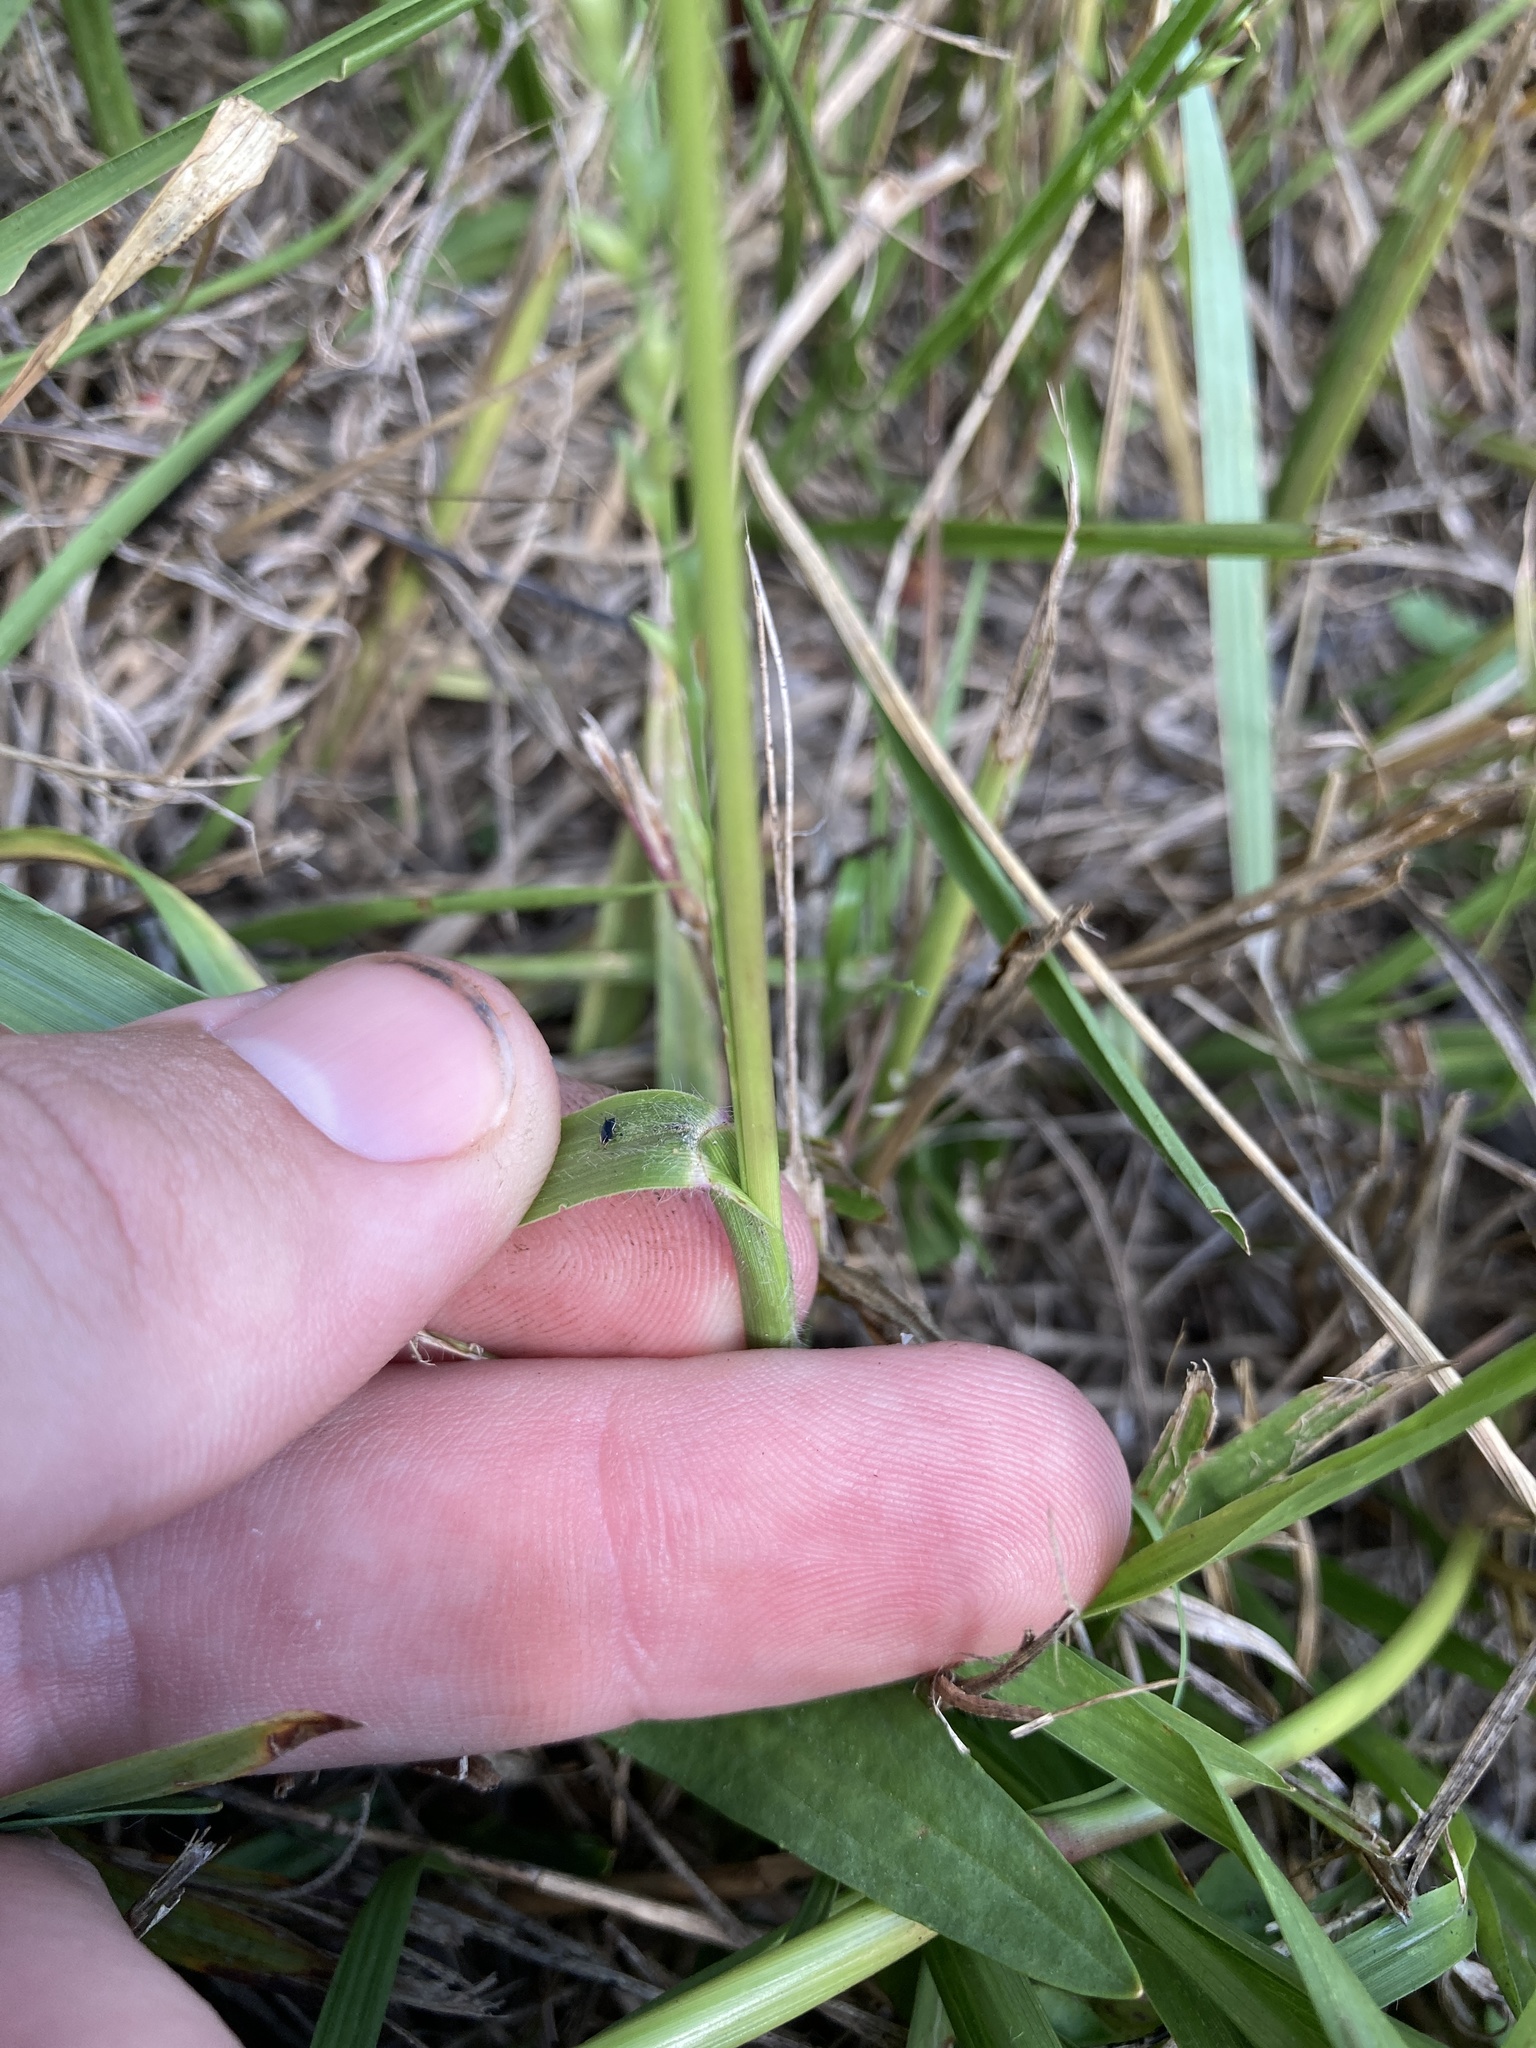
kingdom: Plantae
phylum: Tracheophyta
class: Liliopsida
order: Poales
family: Poaceae
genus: Coleataenia
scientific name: Coleataenia anceps
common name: Beaked panic grass
